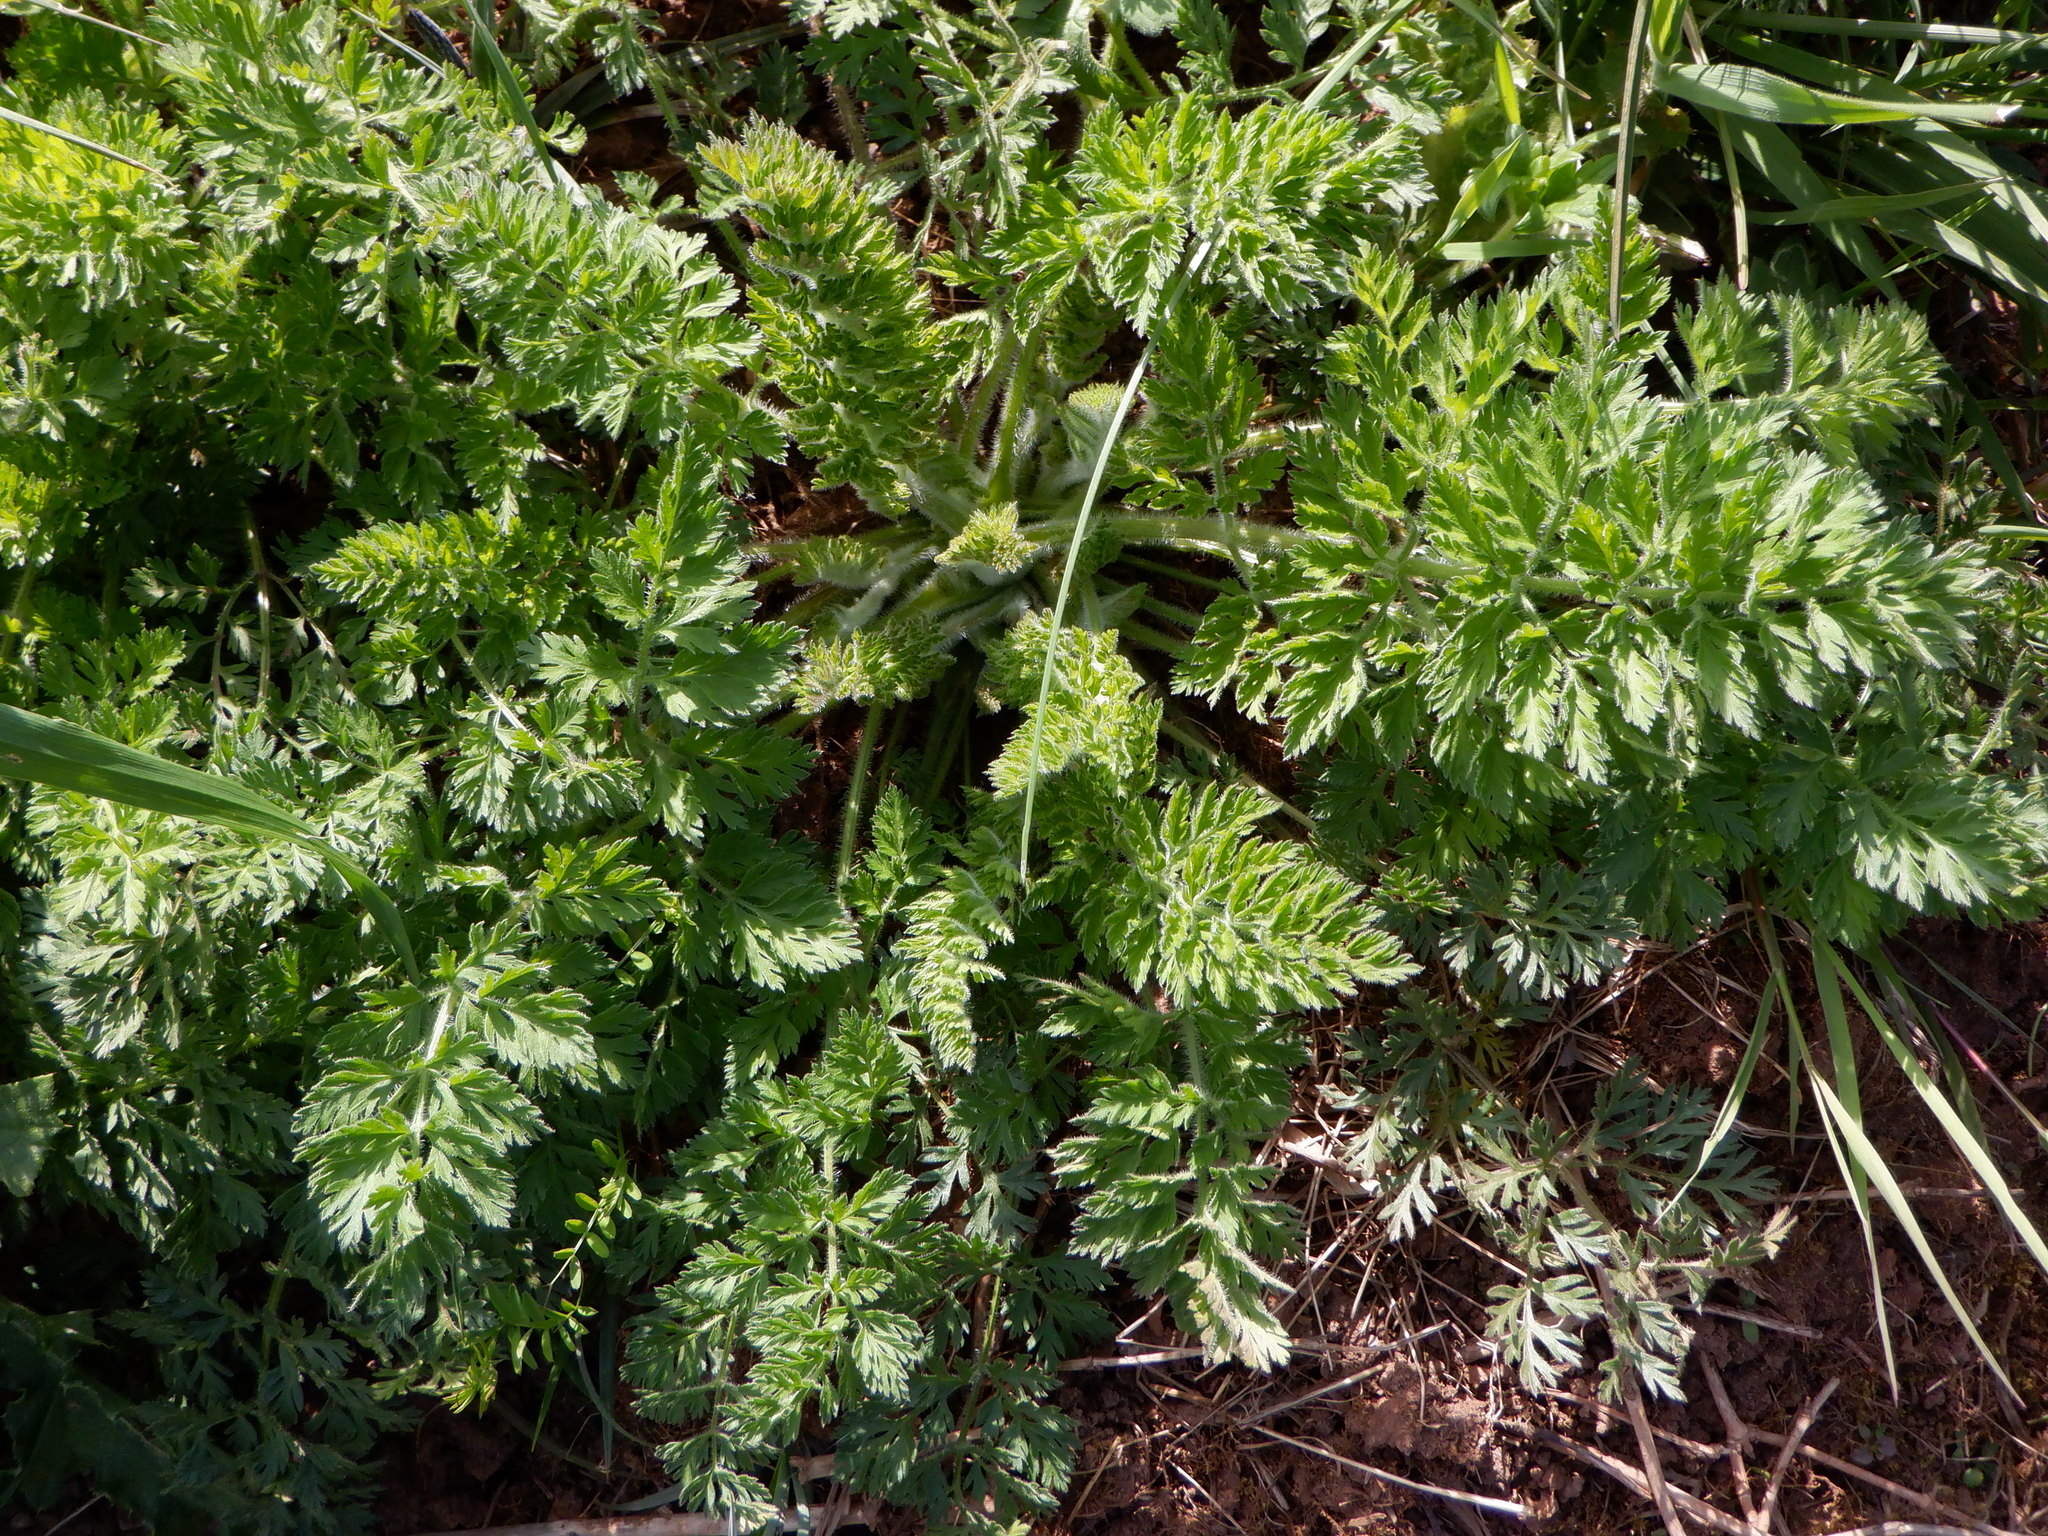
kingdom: Plantae
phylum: Tracheophyta
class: Magnoliopsida
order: Apiales
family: Apiaceae
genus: Daucus
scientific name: Daucus carota
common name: Wild carrot
